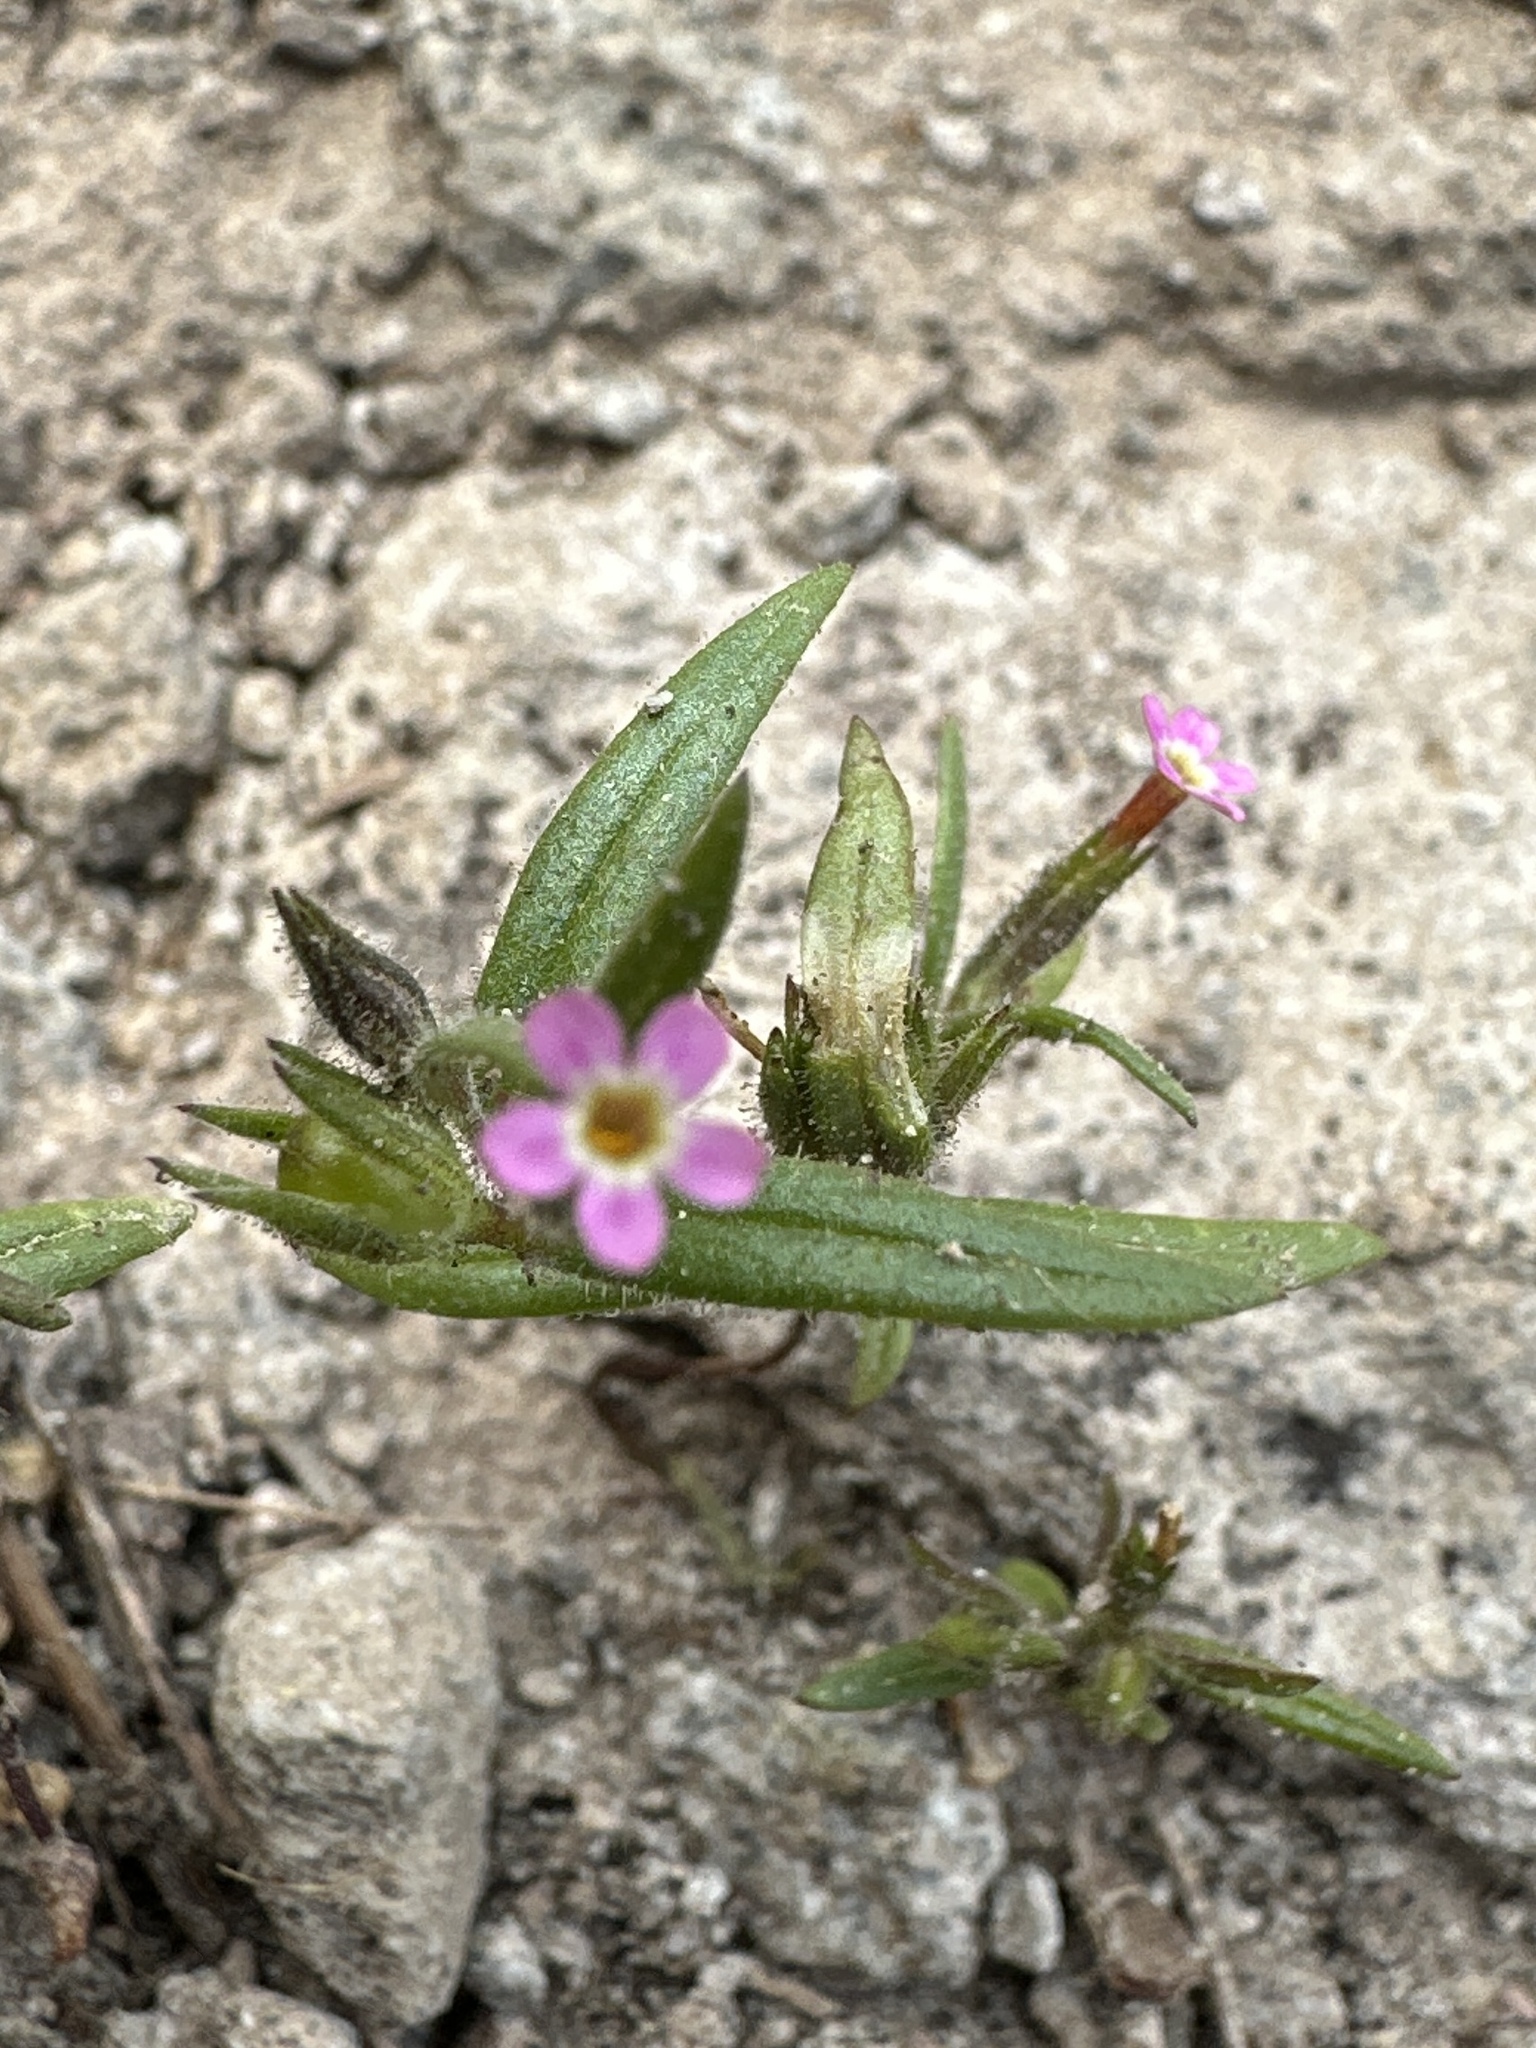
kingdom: Plantae
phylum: Tracheophyta
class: Magnoliopsida
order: Ericales
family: Polemoniaceae
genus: Phlox
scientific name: Phlox gracilis
